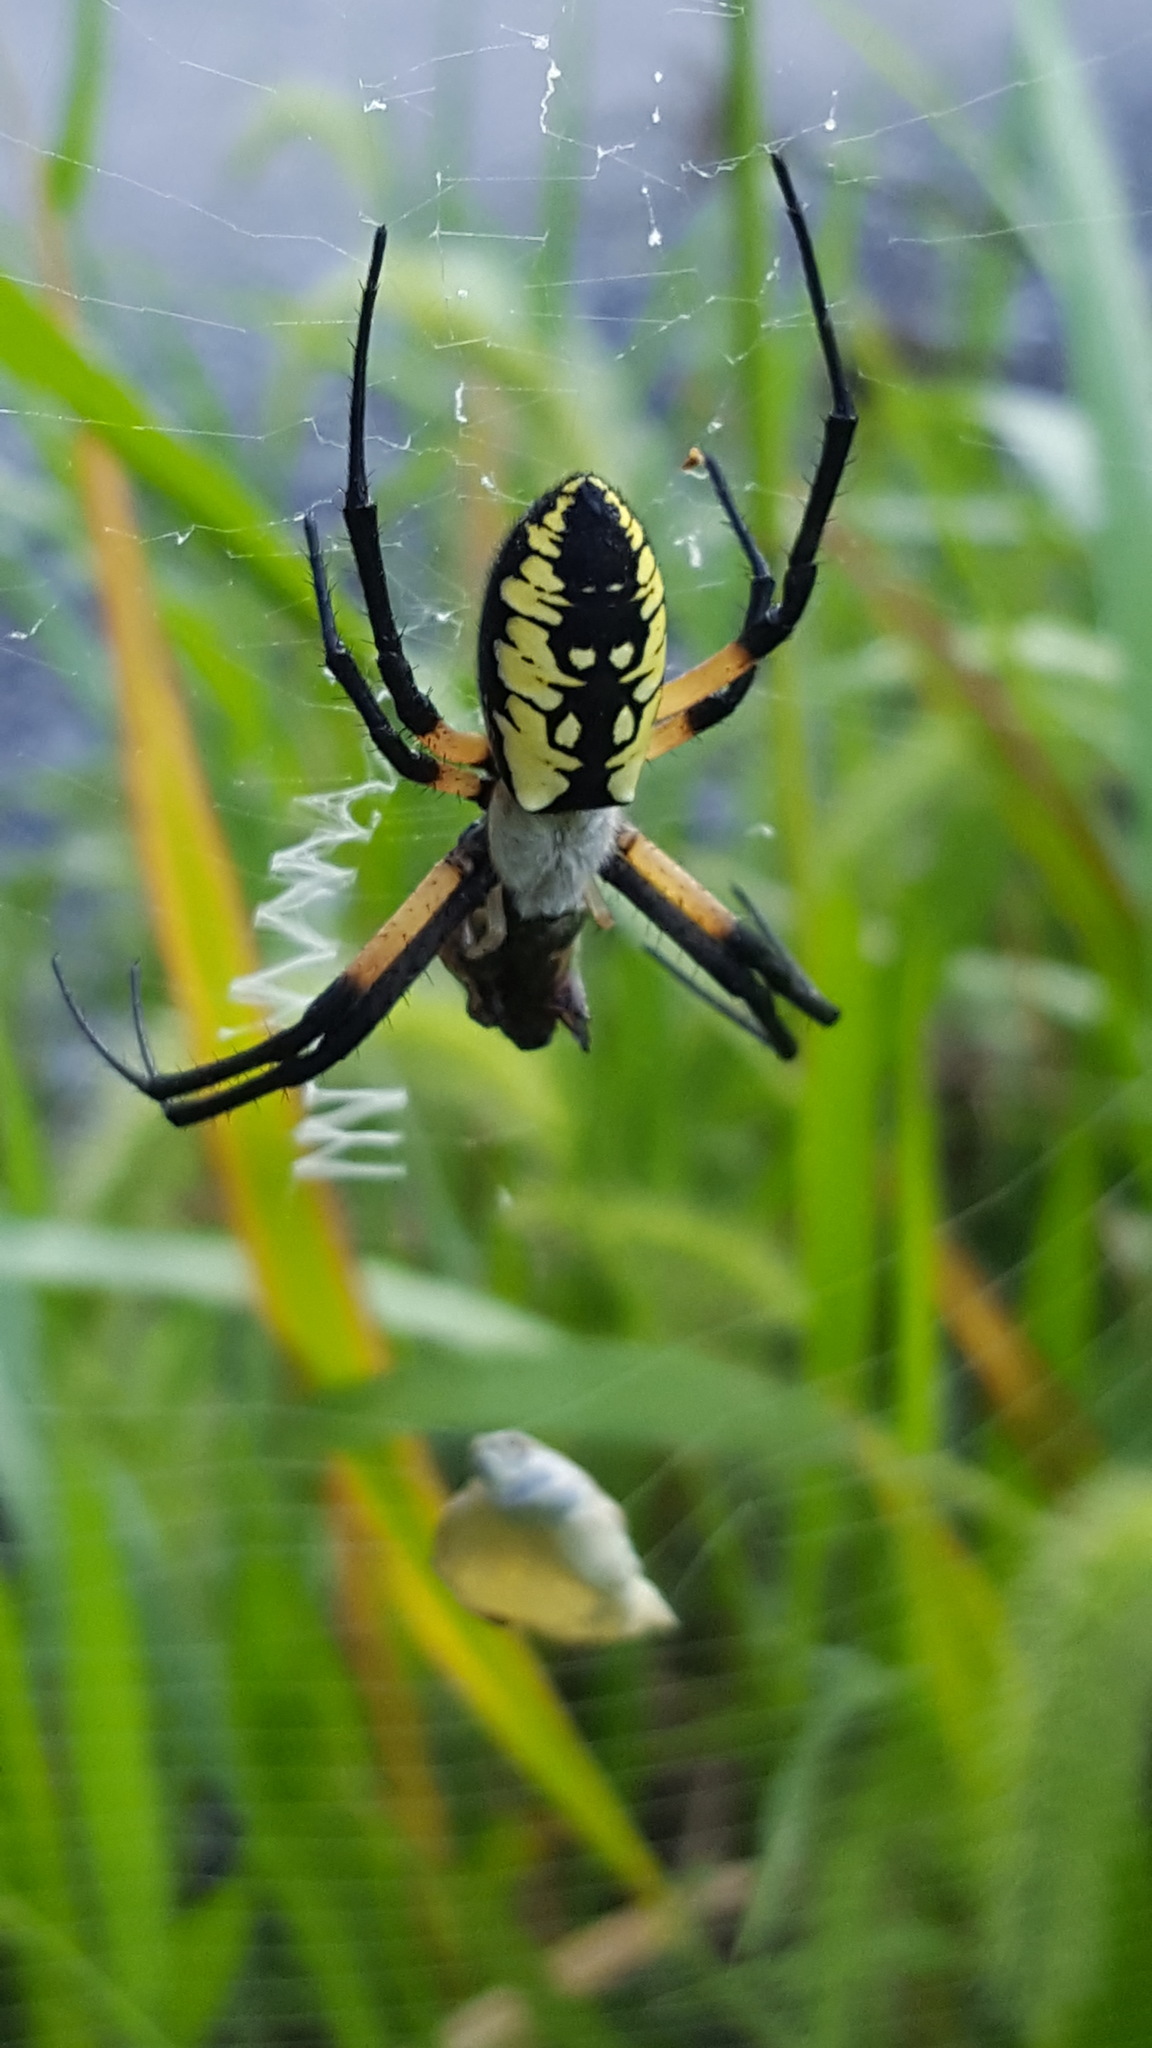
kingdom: Animalia
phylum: Arthropoda
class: Arachnida
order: Araneae
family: Araneidae
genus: Argiope
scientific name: Argiope aurantia
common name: Orb weavers
